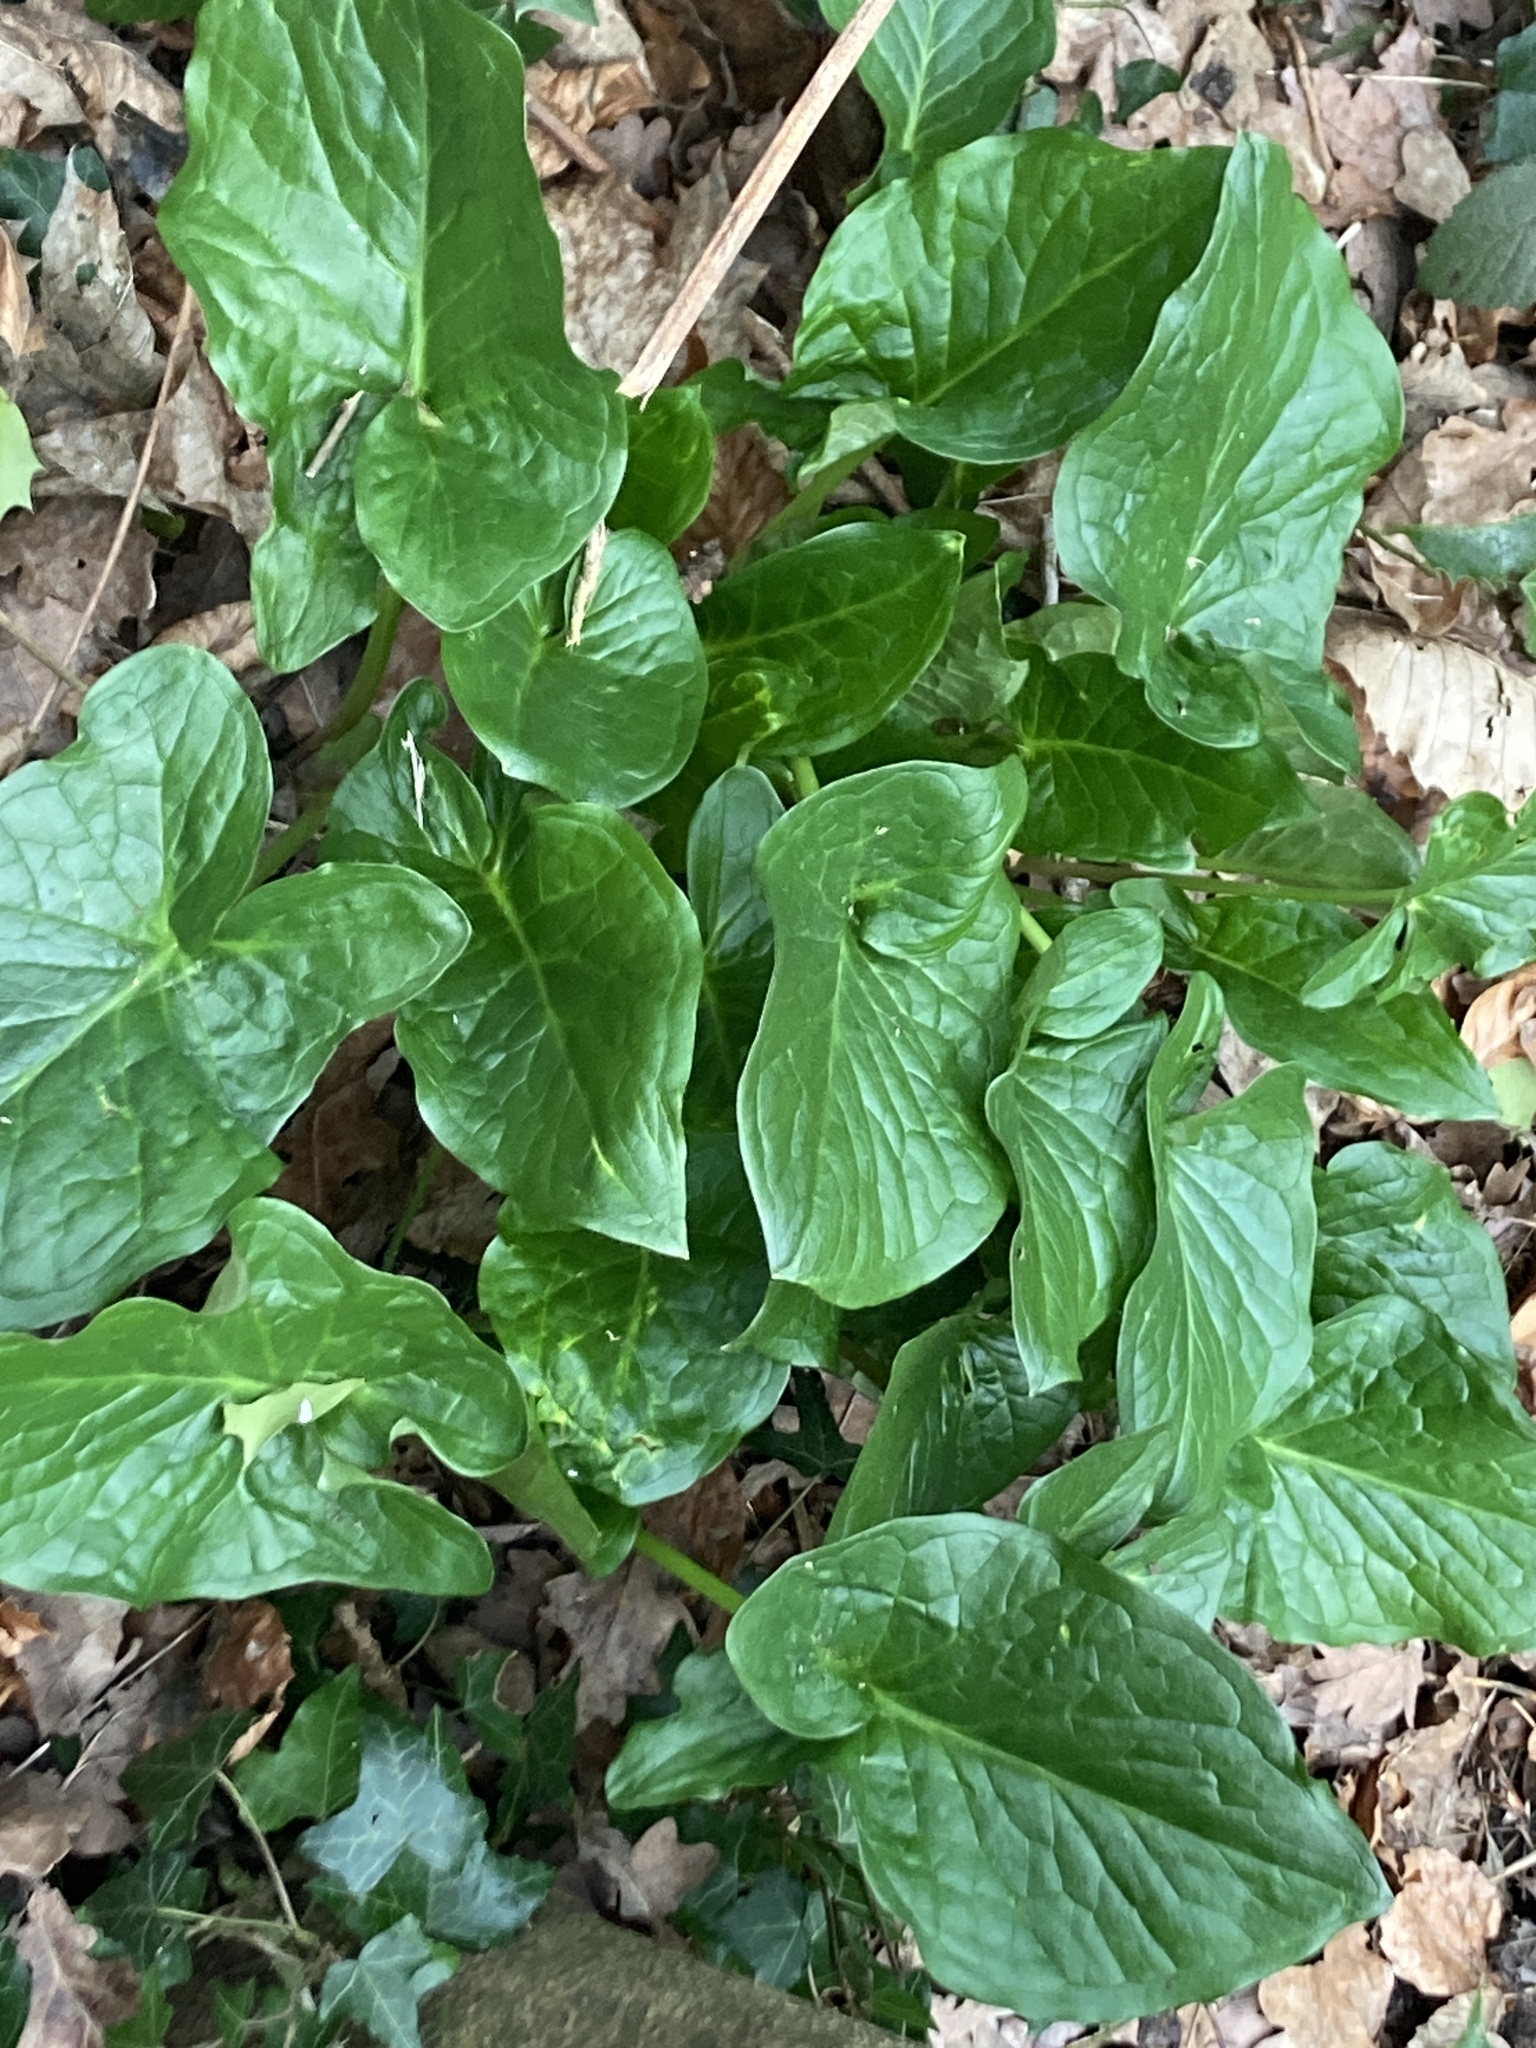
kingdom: Plantae
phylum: Tracheophyta
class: Liliopsida
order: Alismatales
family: Araceae
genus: Arum
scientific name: Arum maculatum
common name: Lords-and-ladies
